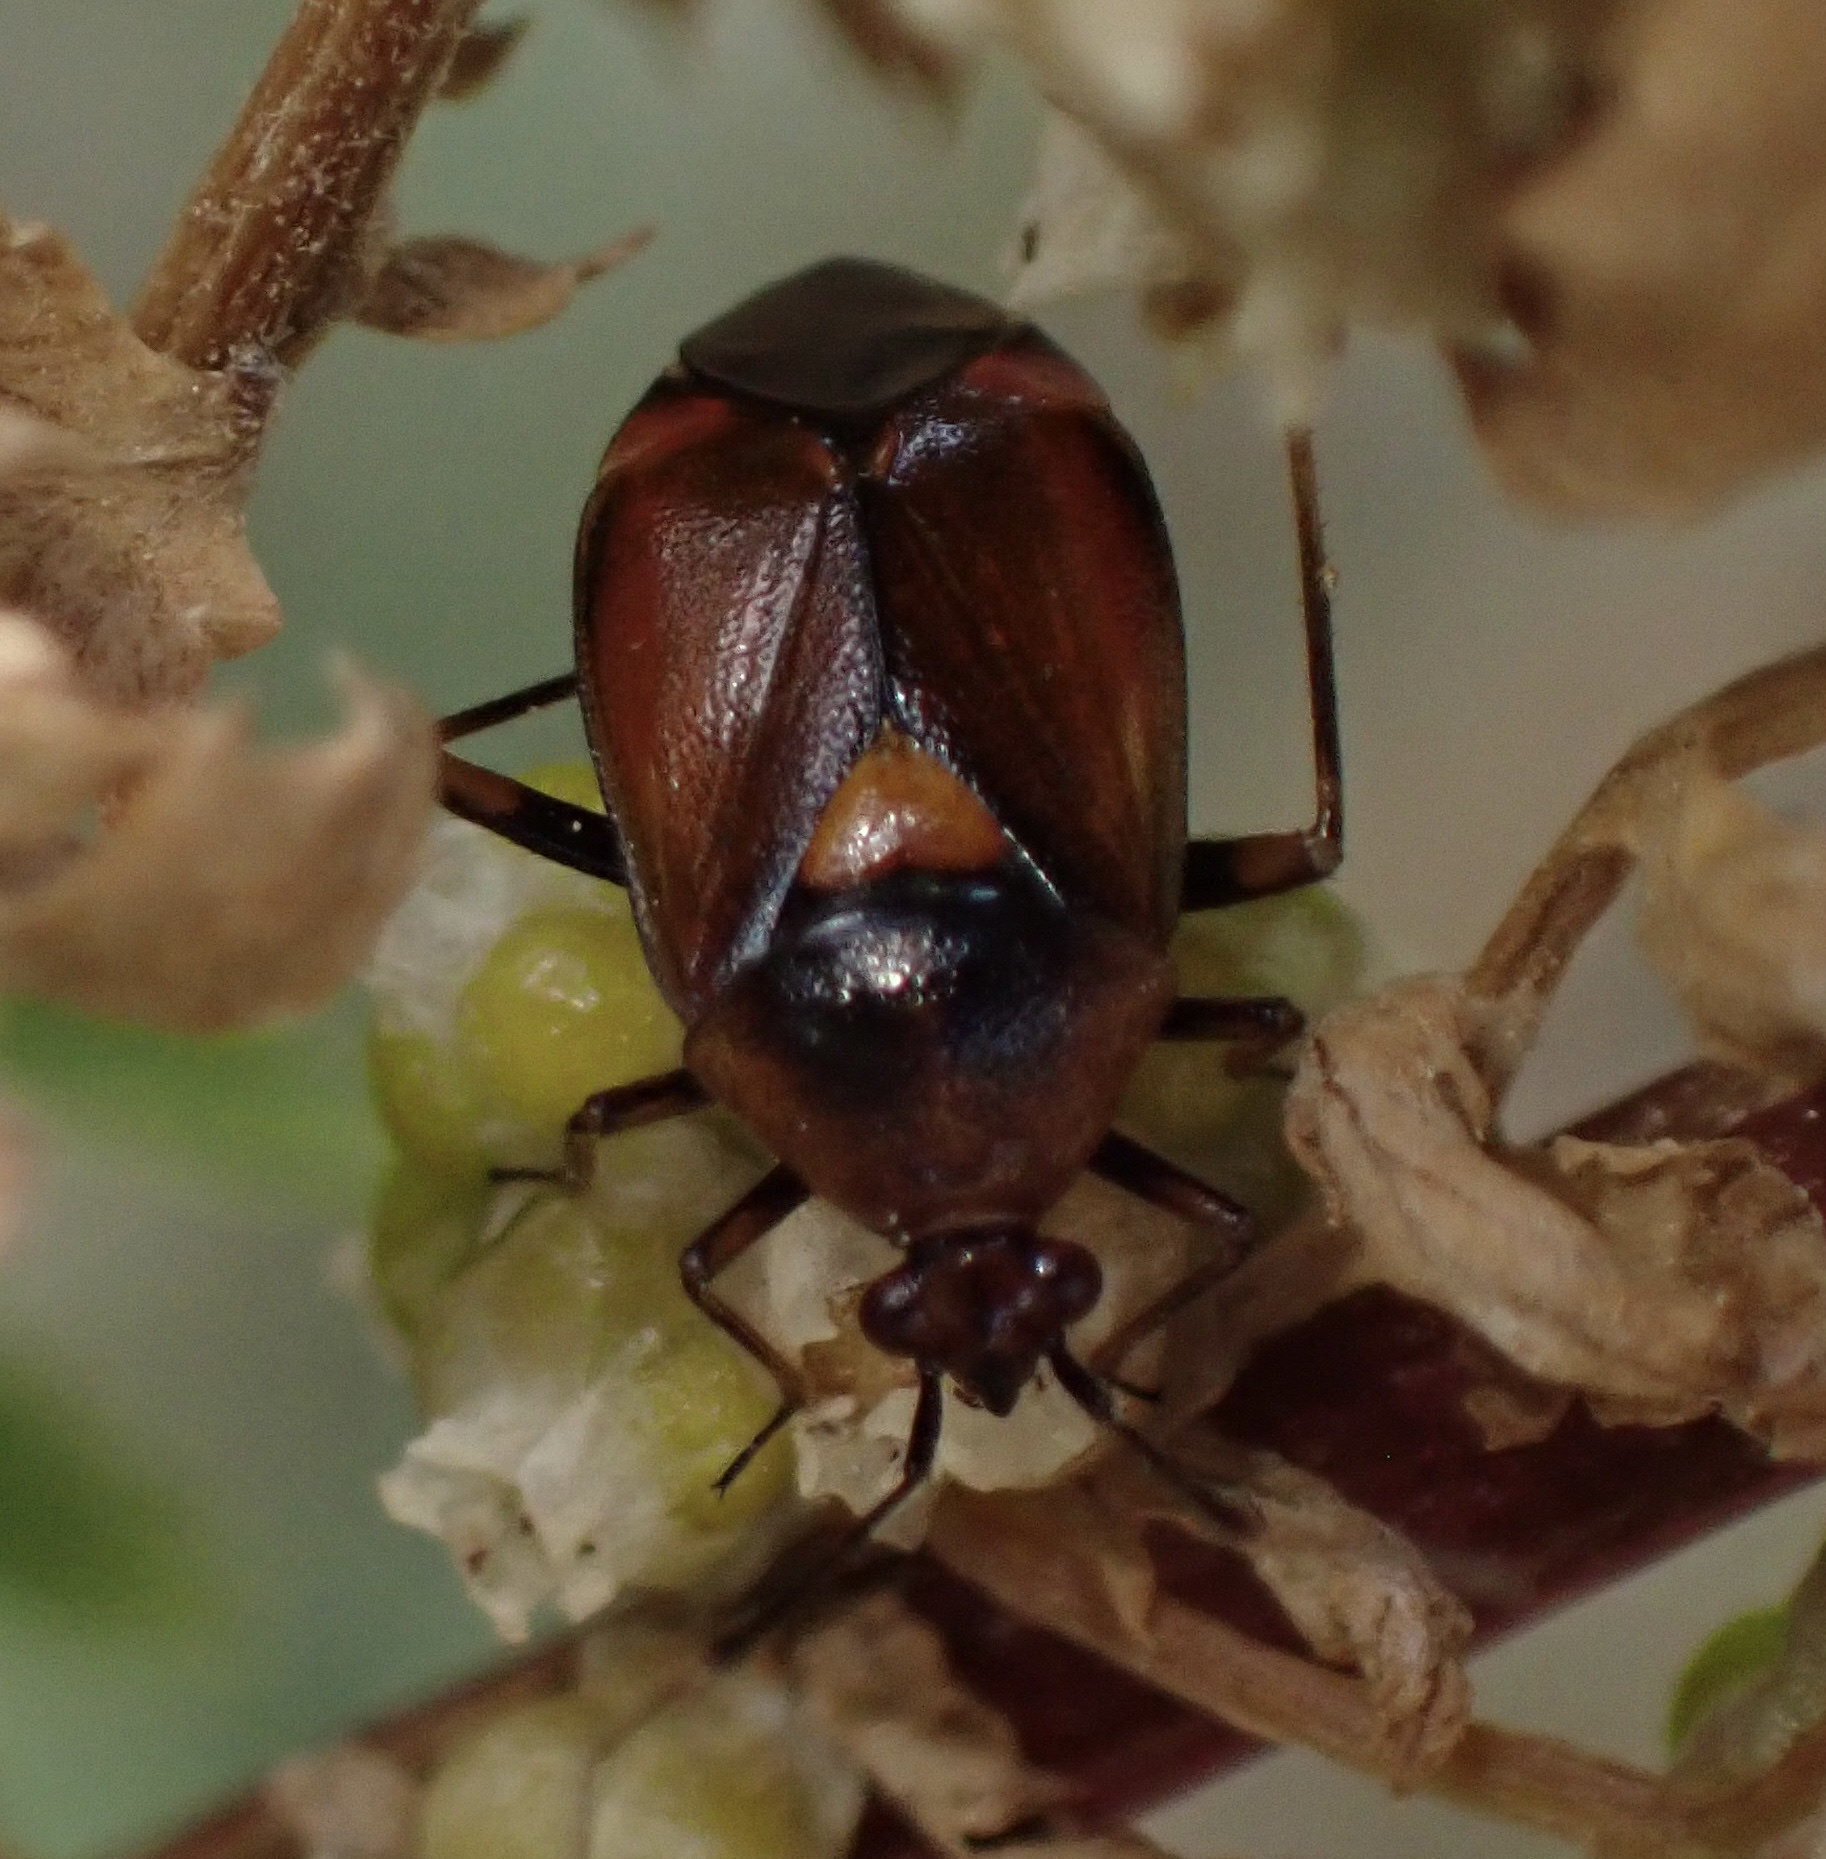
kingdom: Animalia
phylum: Arthropoda
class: Insecta
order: Hemiptera
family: Miridae
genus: Deraeocoris
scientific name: Deraeocoris ruber
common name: Plant bug
